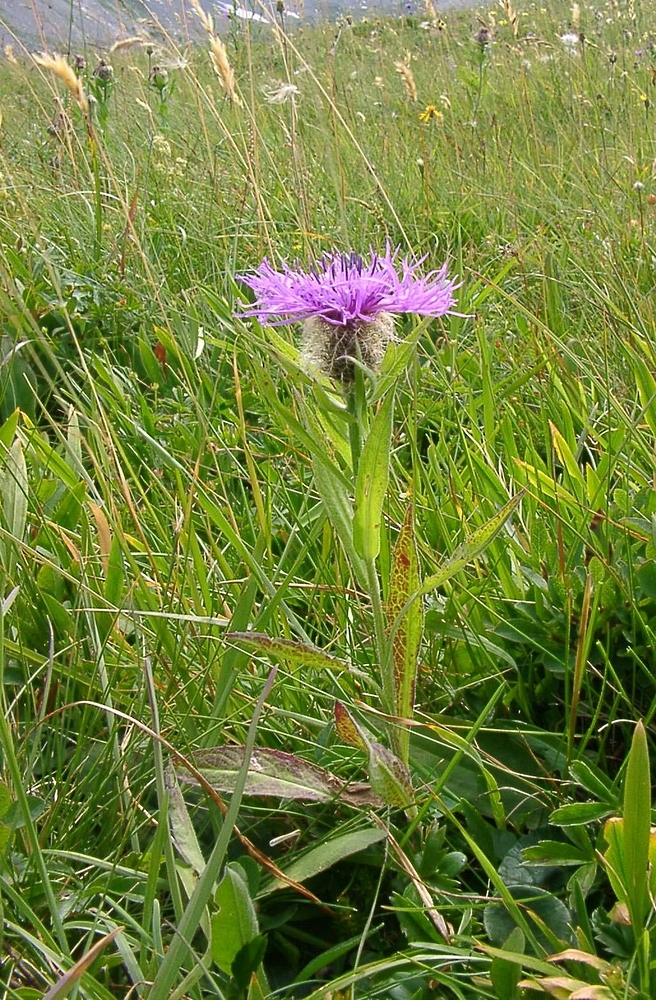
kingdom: Plantae
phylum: Tracheophyta
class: Magnoliopsida
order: Asterales
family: Asteraceae
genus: Centaurea
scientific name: Centaurea nervosa
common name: Singleflower knapweed
